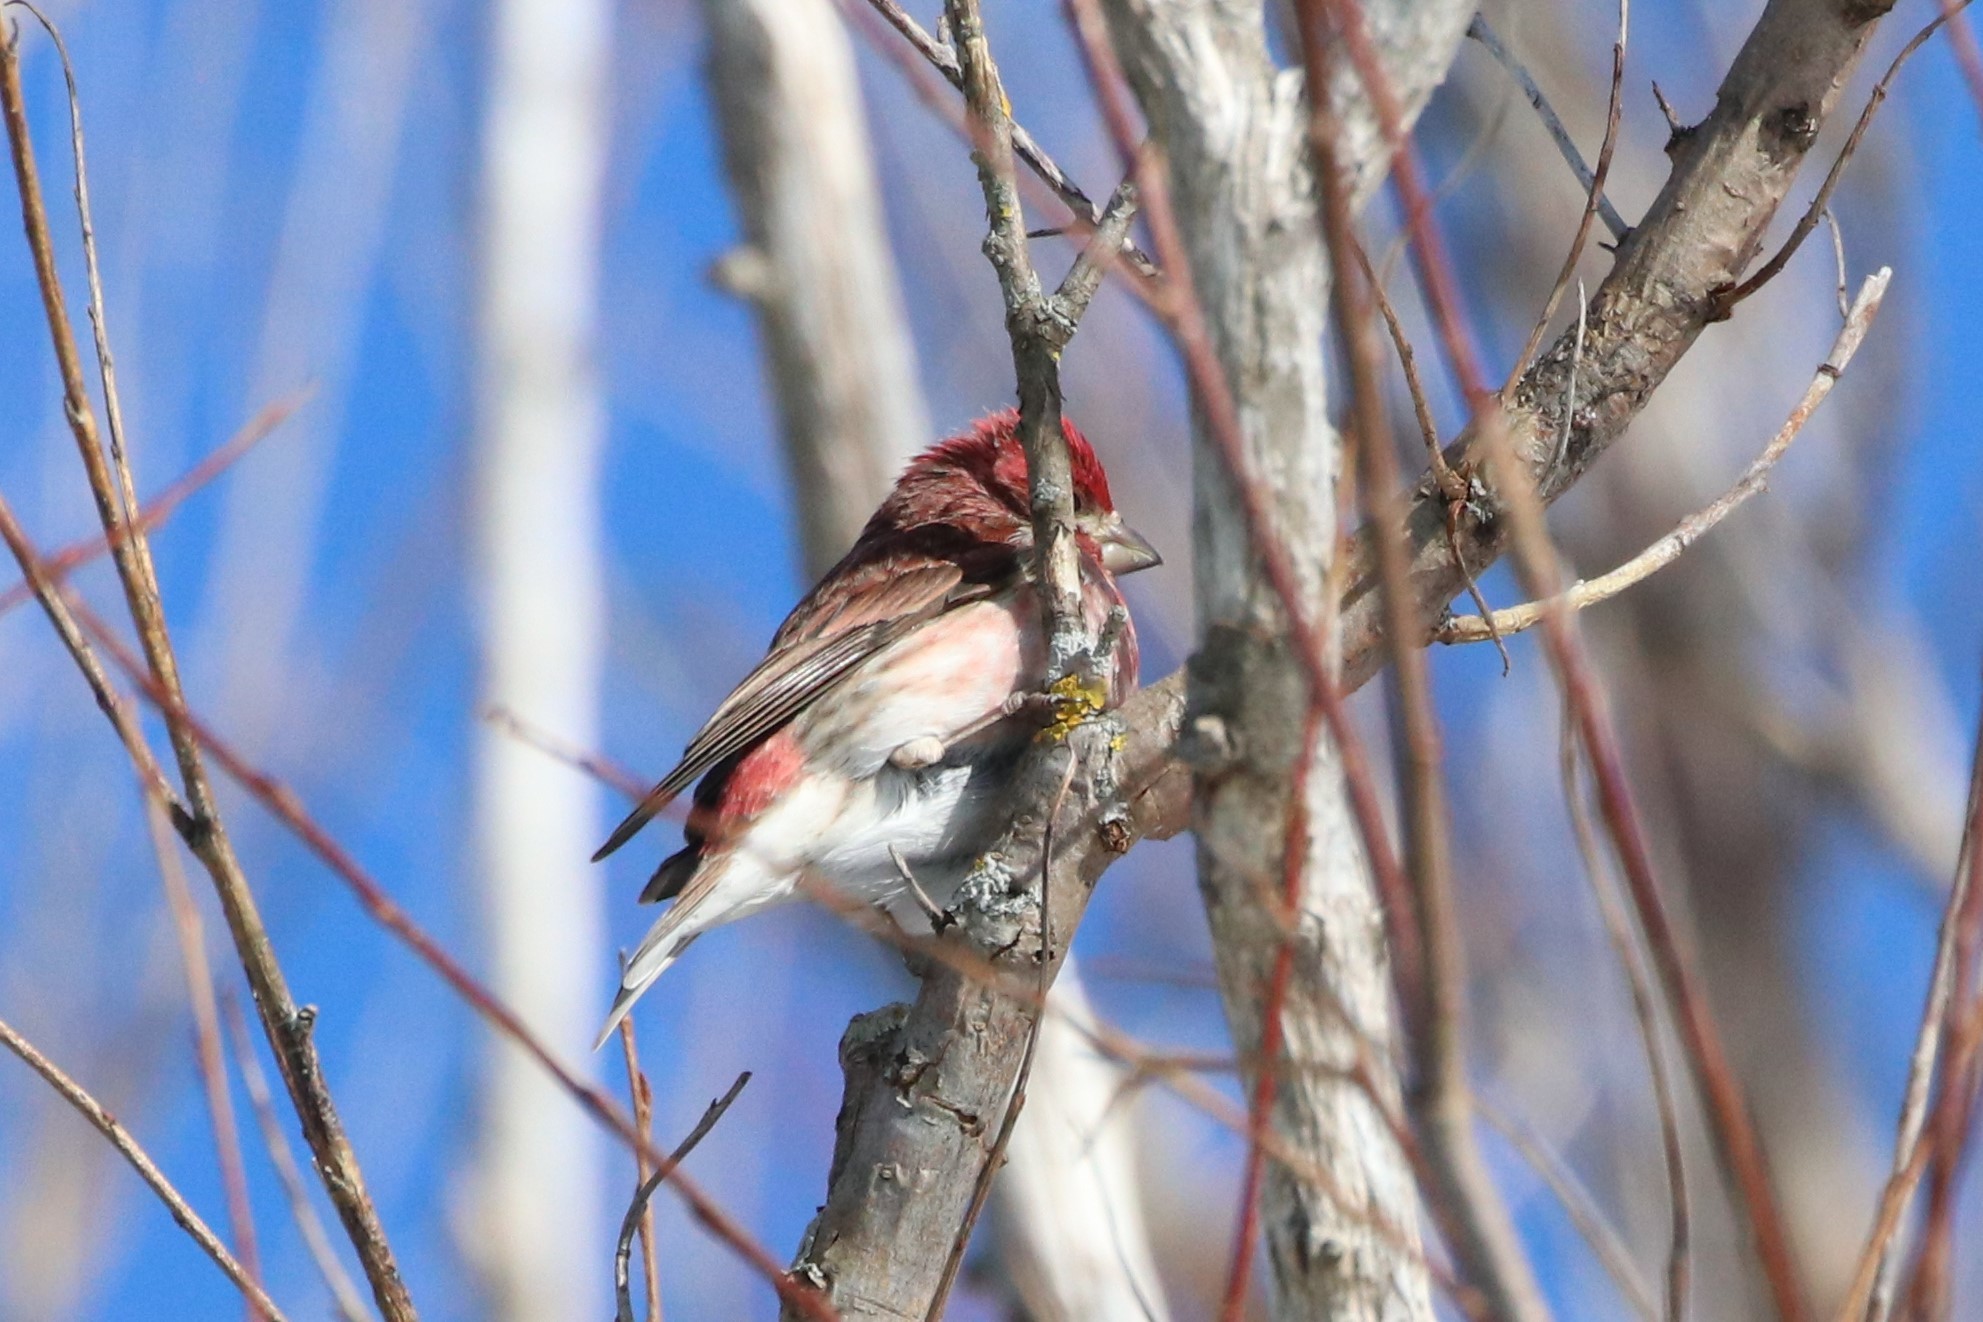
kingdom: Animalia
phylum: Chordata
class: Aves
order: Passeriformes
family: Fringillidae
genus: Haemorhous
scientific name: Haemorhous purpureus
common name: Purple finch
